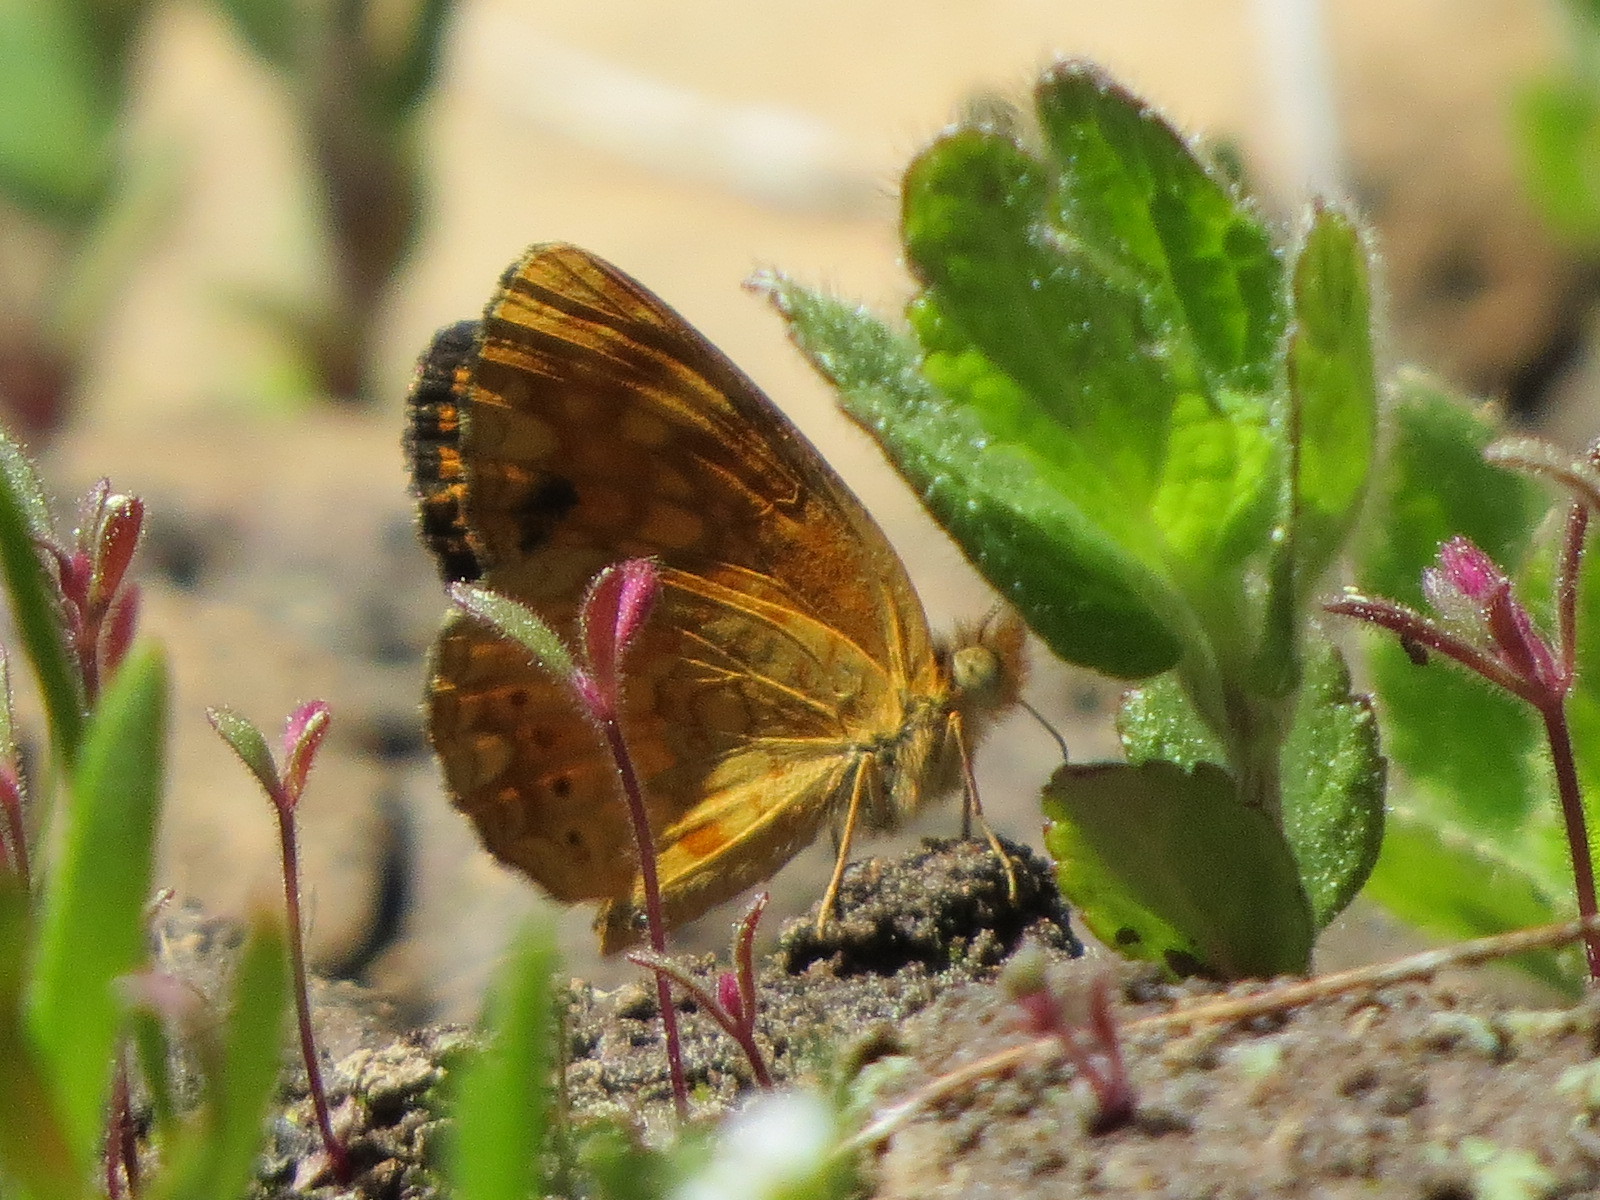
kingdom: Animalia
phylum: Arthropoda
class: Insecta
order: Lepidoptera
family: Nymphalidae
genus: Eresia
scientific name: Eresia aveyrona
